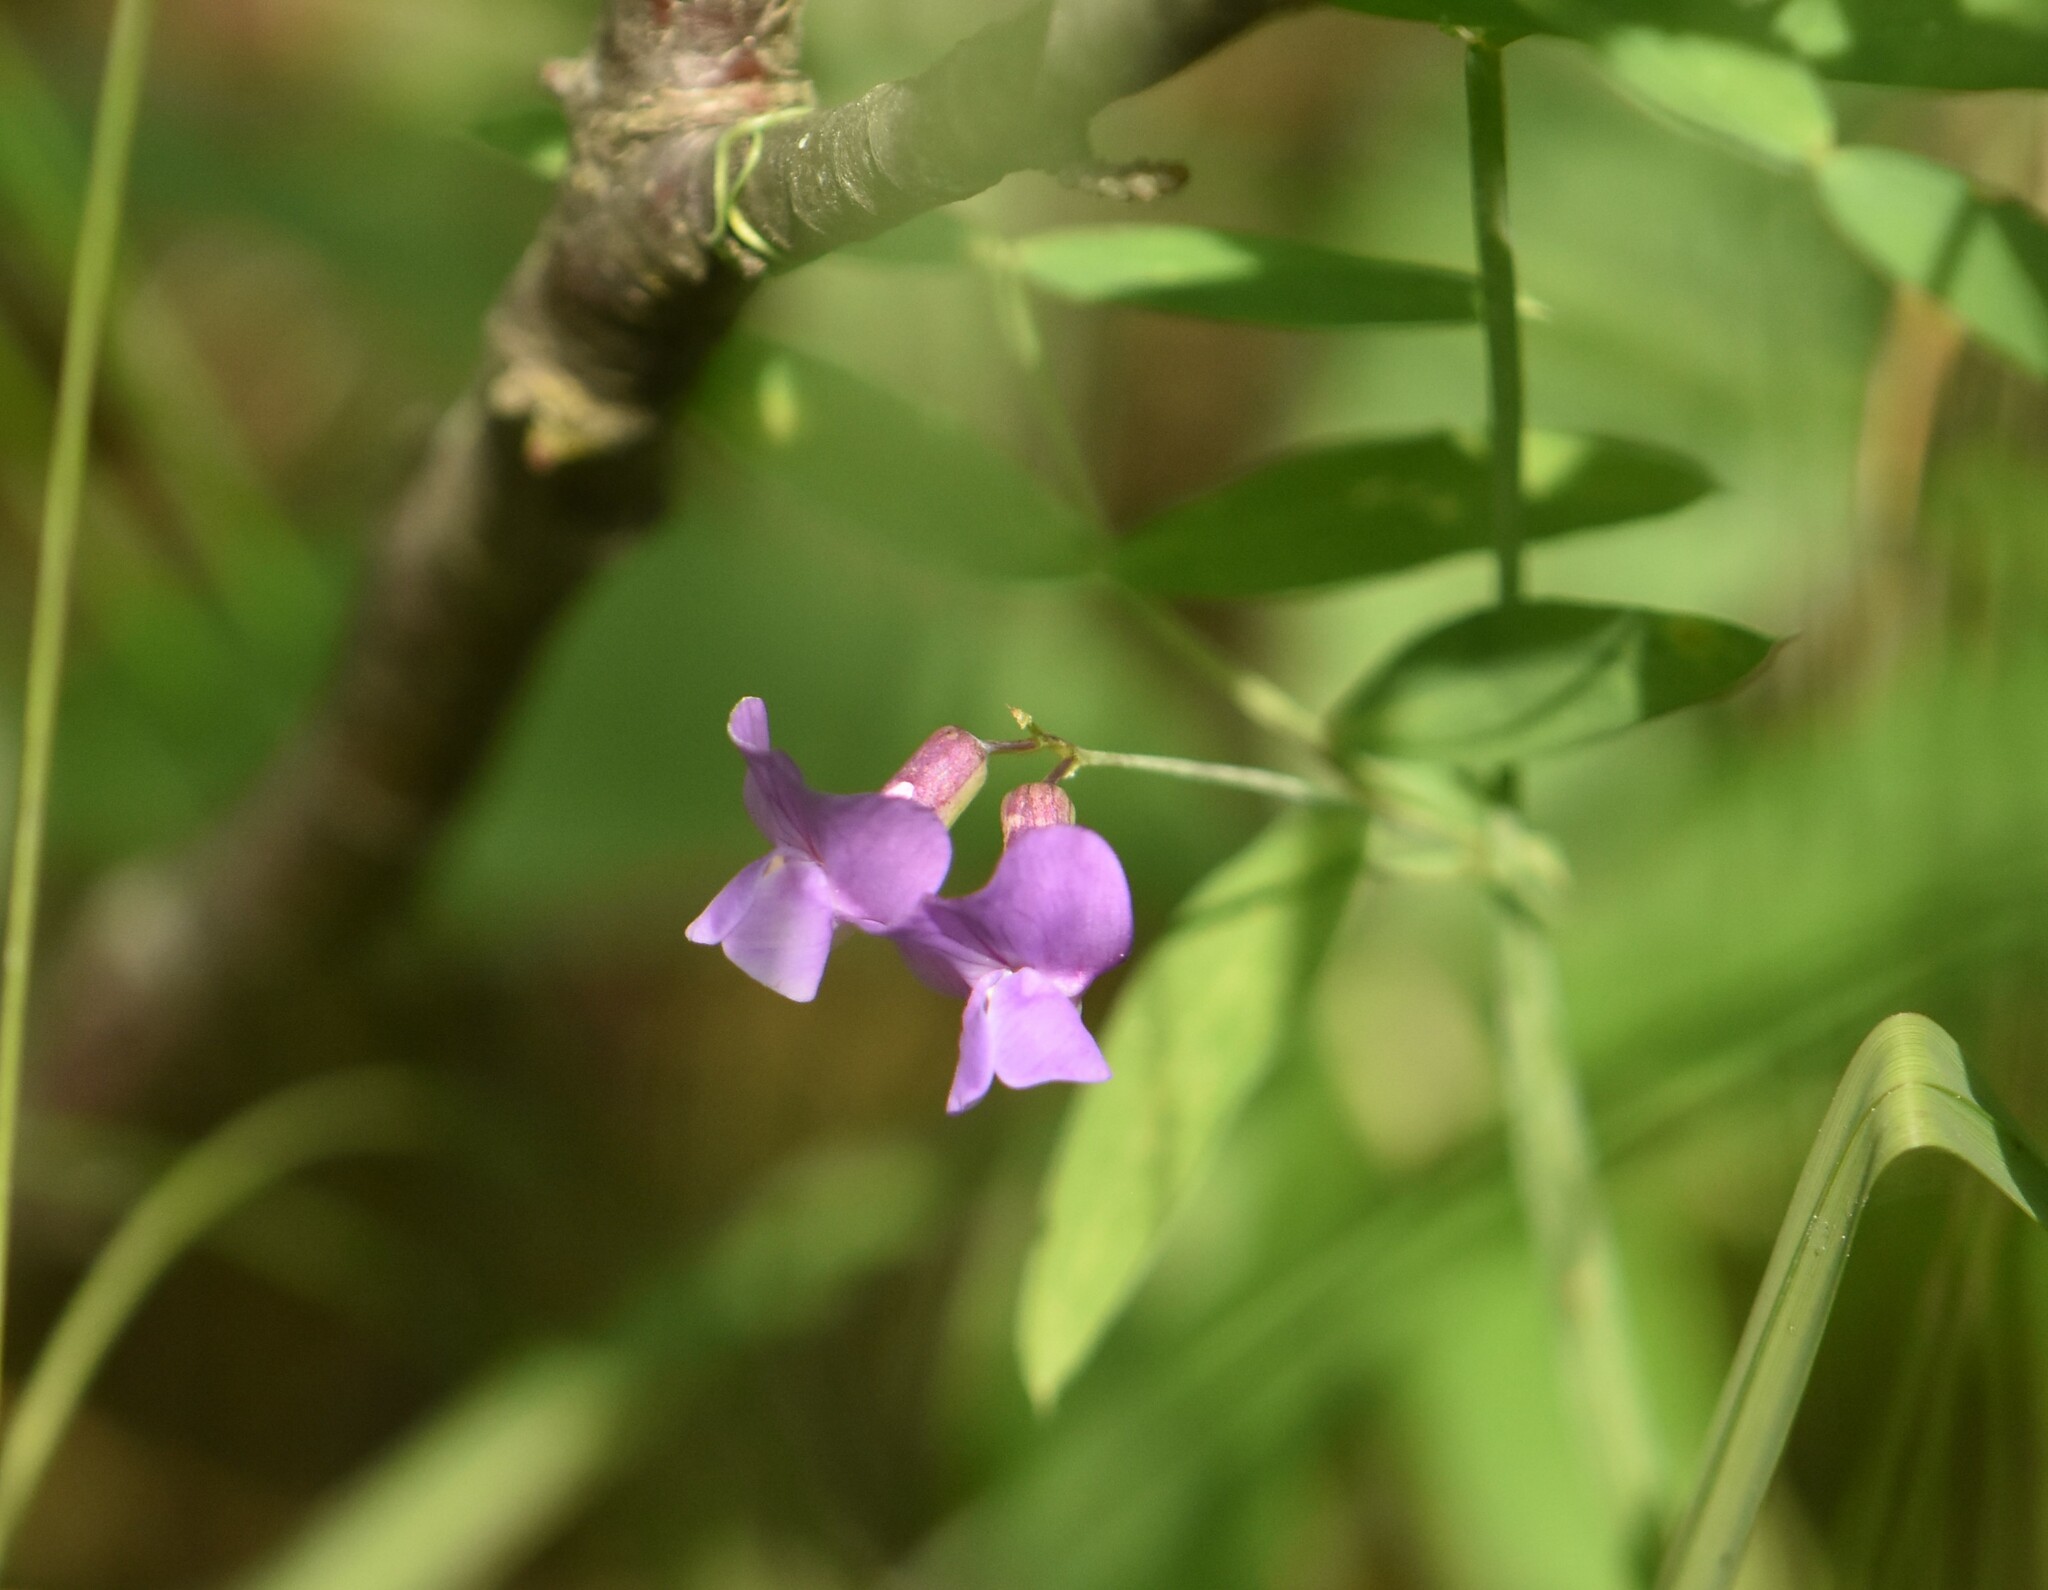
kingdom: Plantae
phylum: Tracheophyta
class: Magnoliopsida
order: Fabales
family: Fabaceae
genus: Lathyrus
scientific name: Lathyrus palustris
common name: Marsh pea
